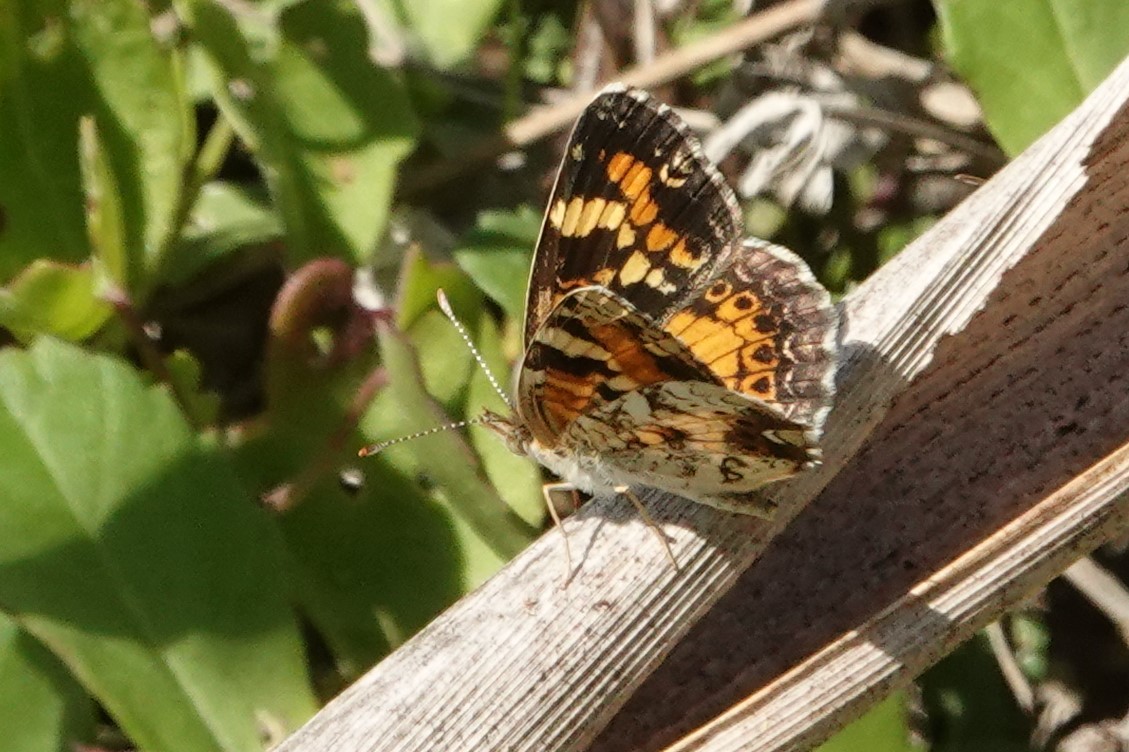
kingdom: Animalia
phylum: Arthropoda
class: Insecta
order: Lepidoptera
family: Nymphalidae
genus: Phyciodes
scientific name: Phyciodes phaon
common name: Phaon crescent
